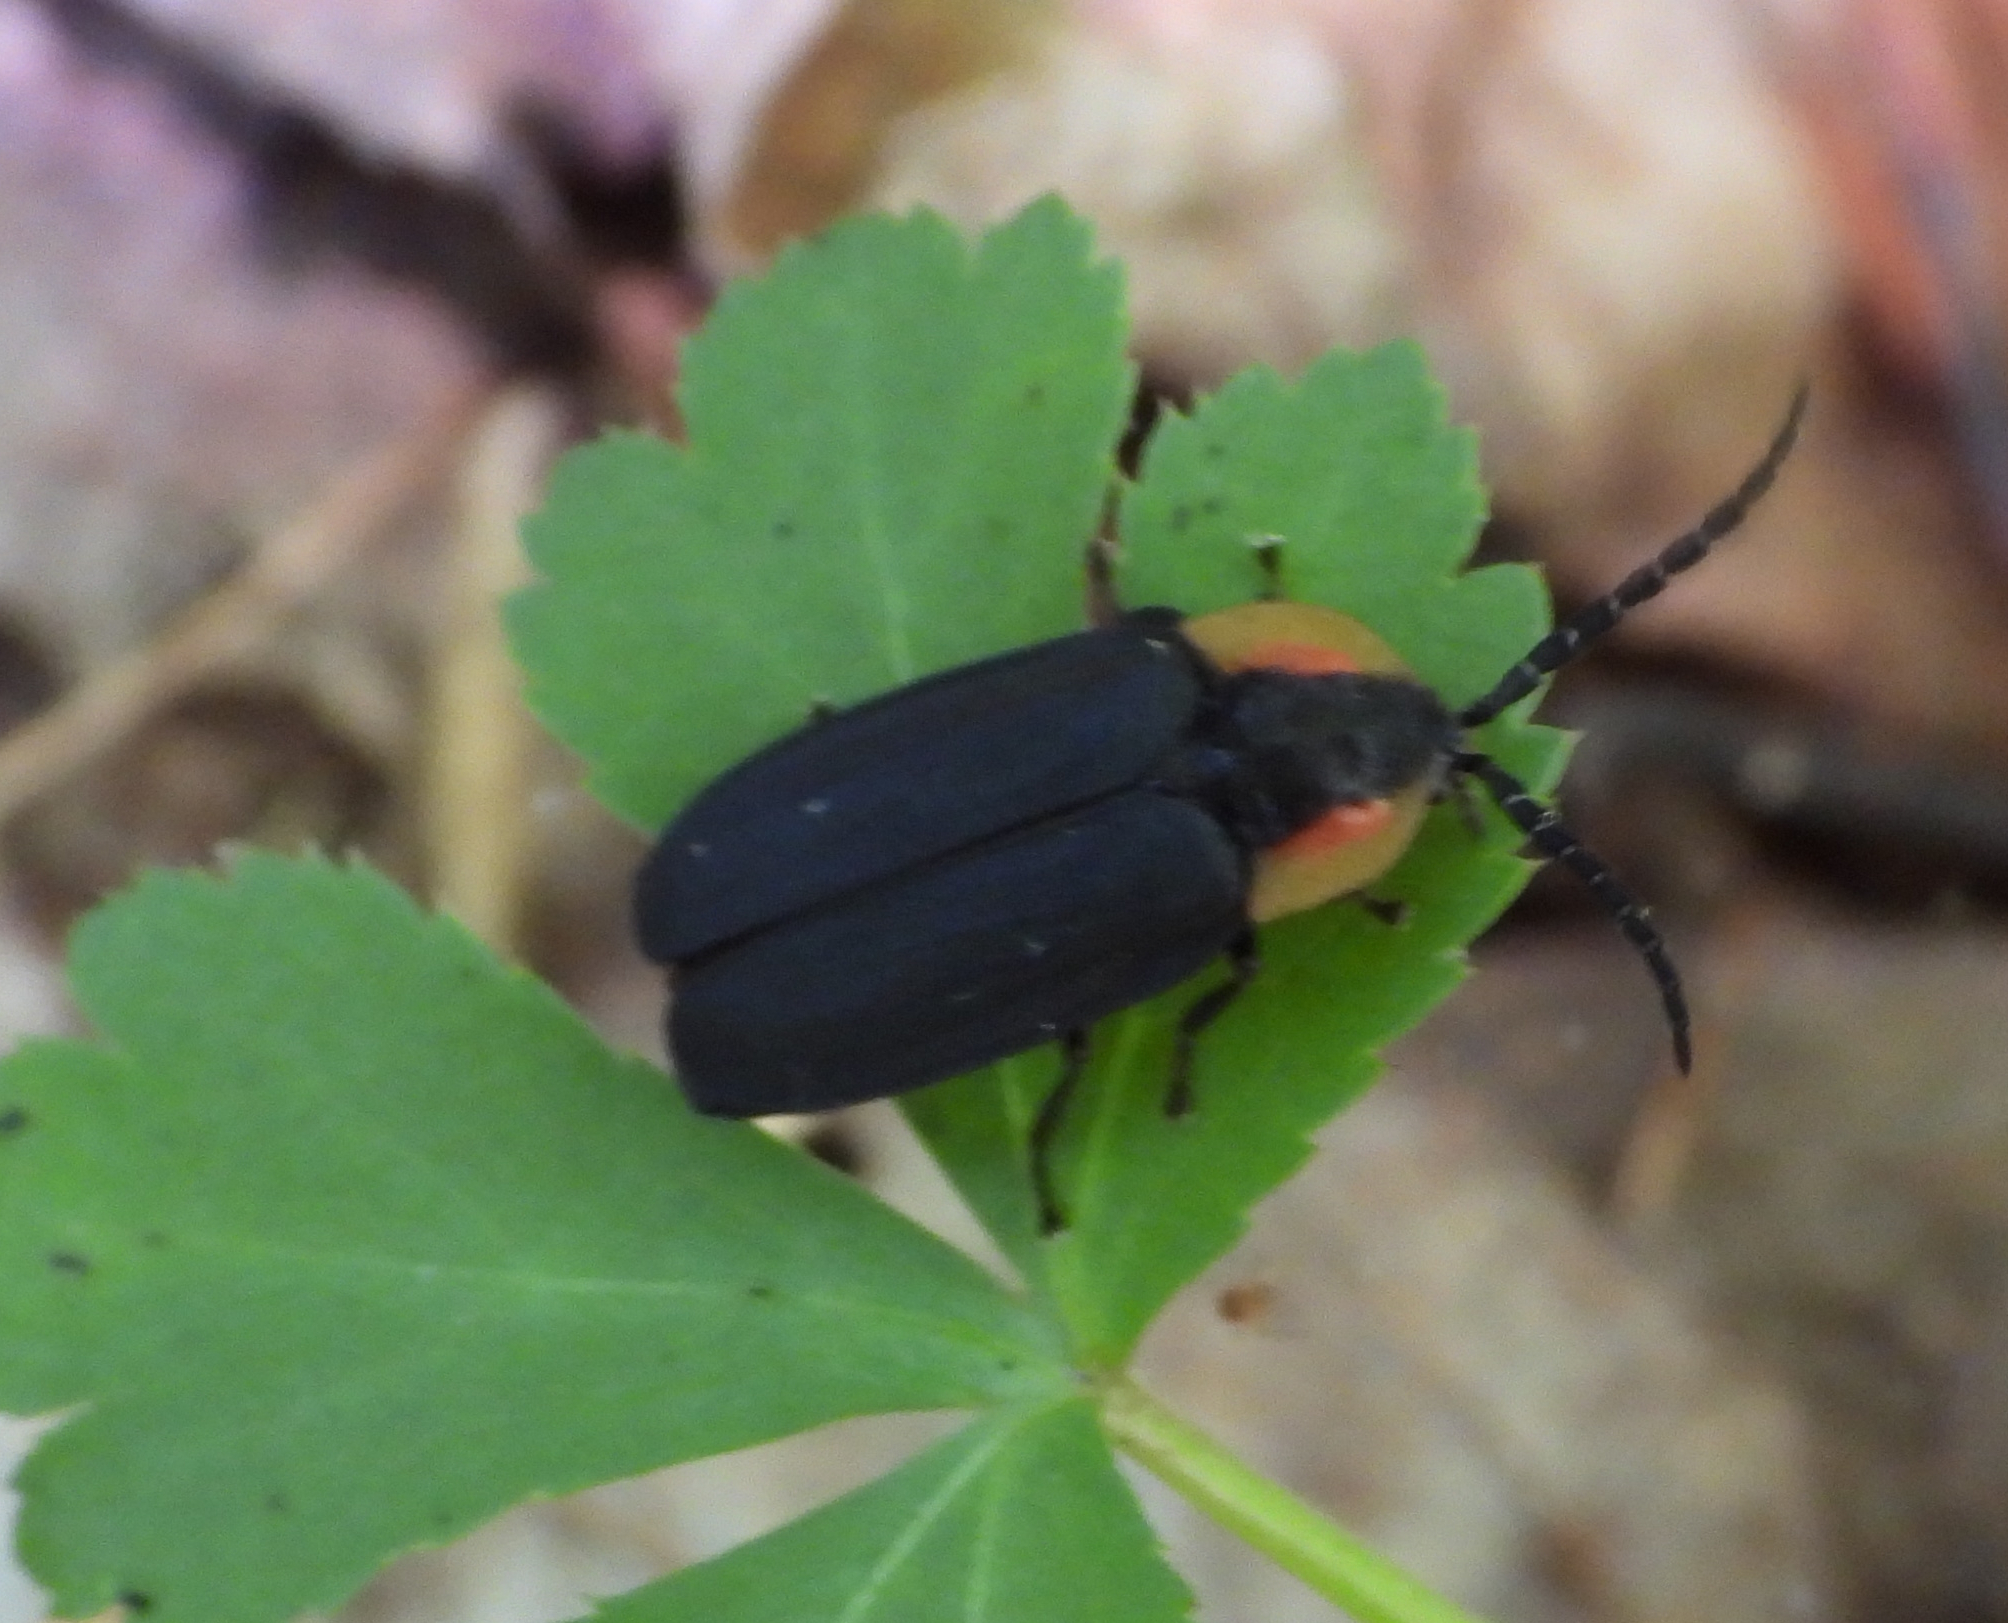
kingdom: Animalia
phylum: Arthropoda
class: Insecta
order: Coleoptera
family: Lampyridae
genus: Lucidota
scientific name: Lucidota atra
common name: Black firefly
